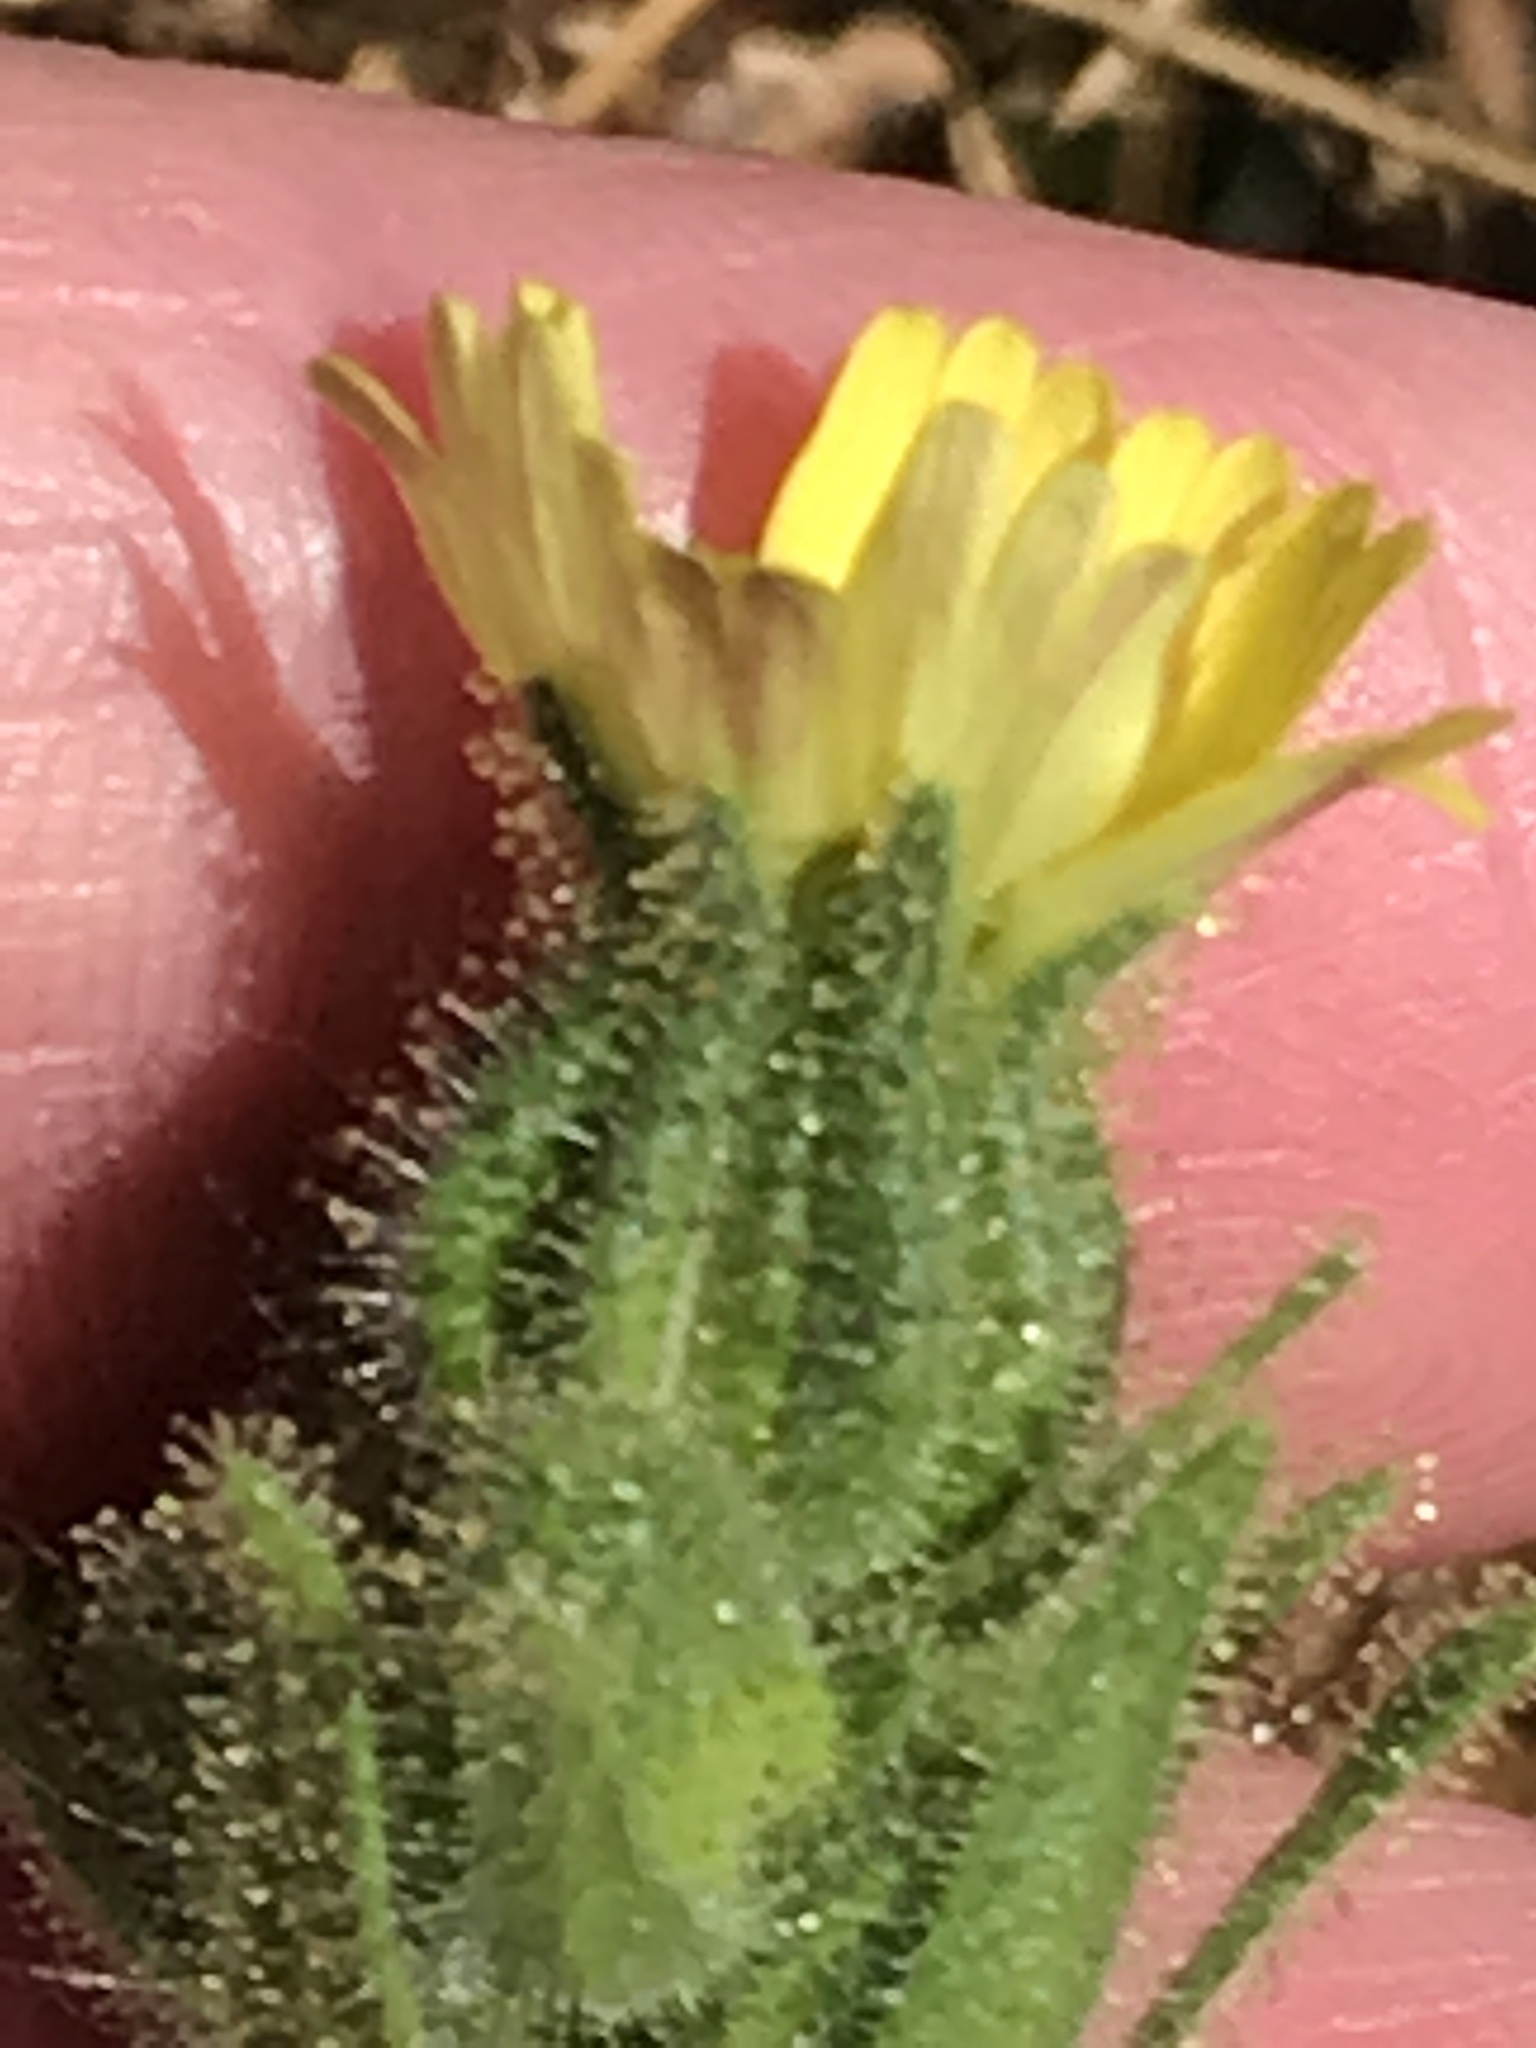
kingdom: Plantae
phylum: Tracheophyta
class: Magnoliopsida
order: Asterales
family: Asteraceae
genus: Madia
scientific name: Madia sativa
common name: Coast tarweed
